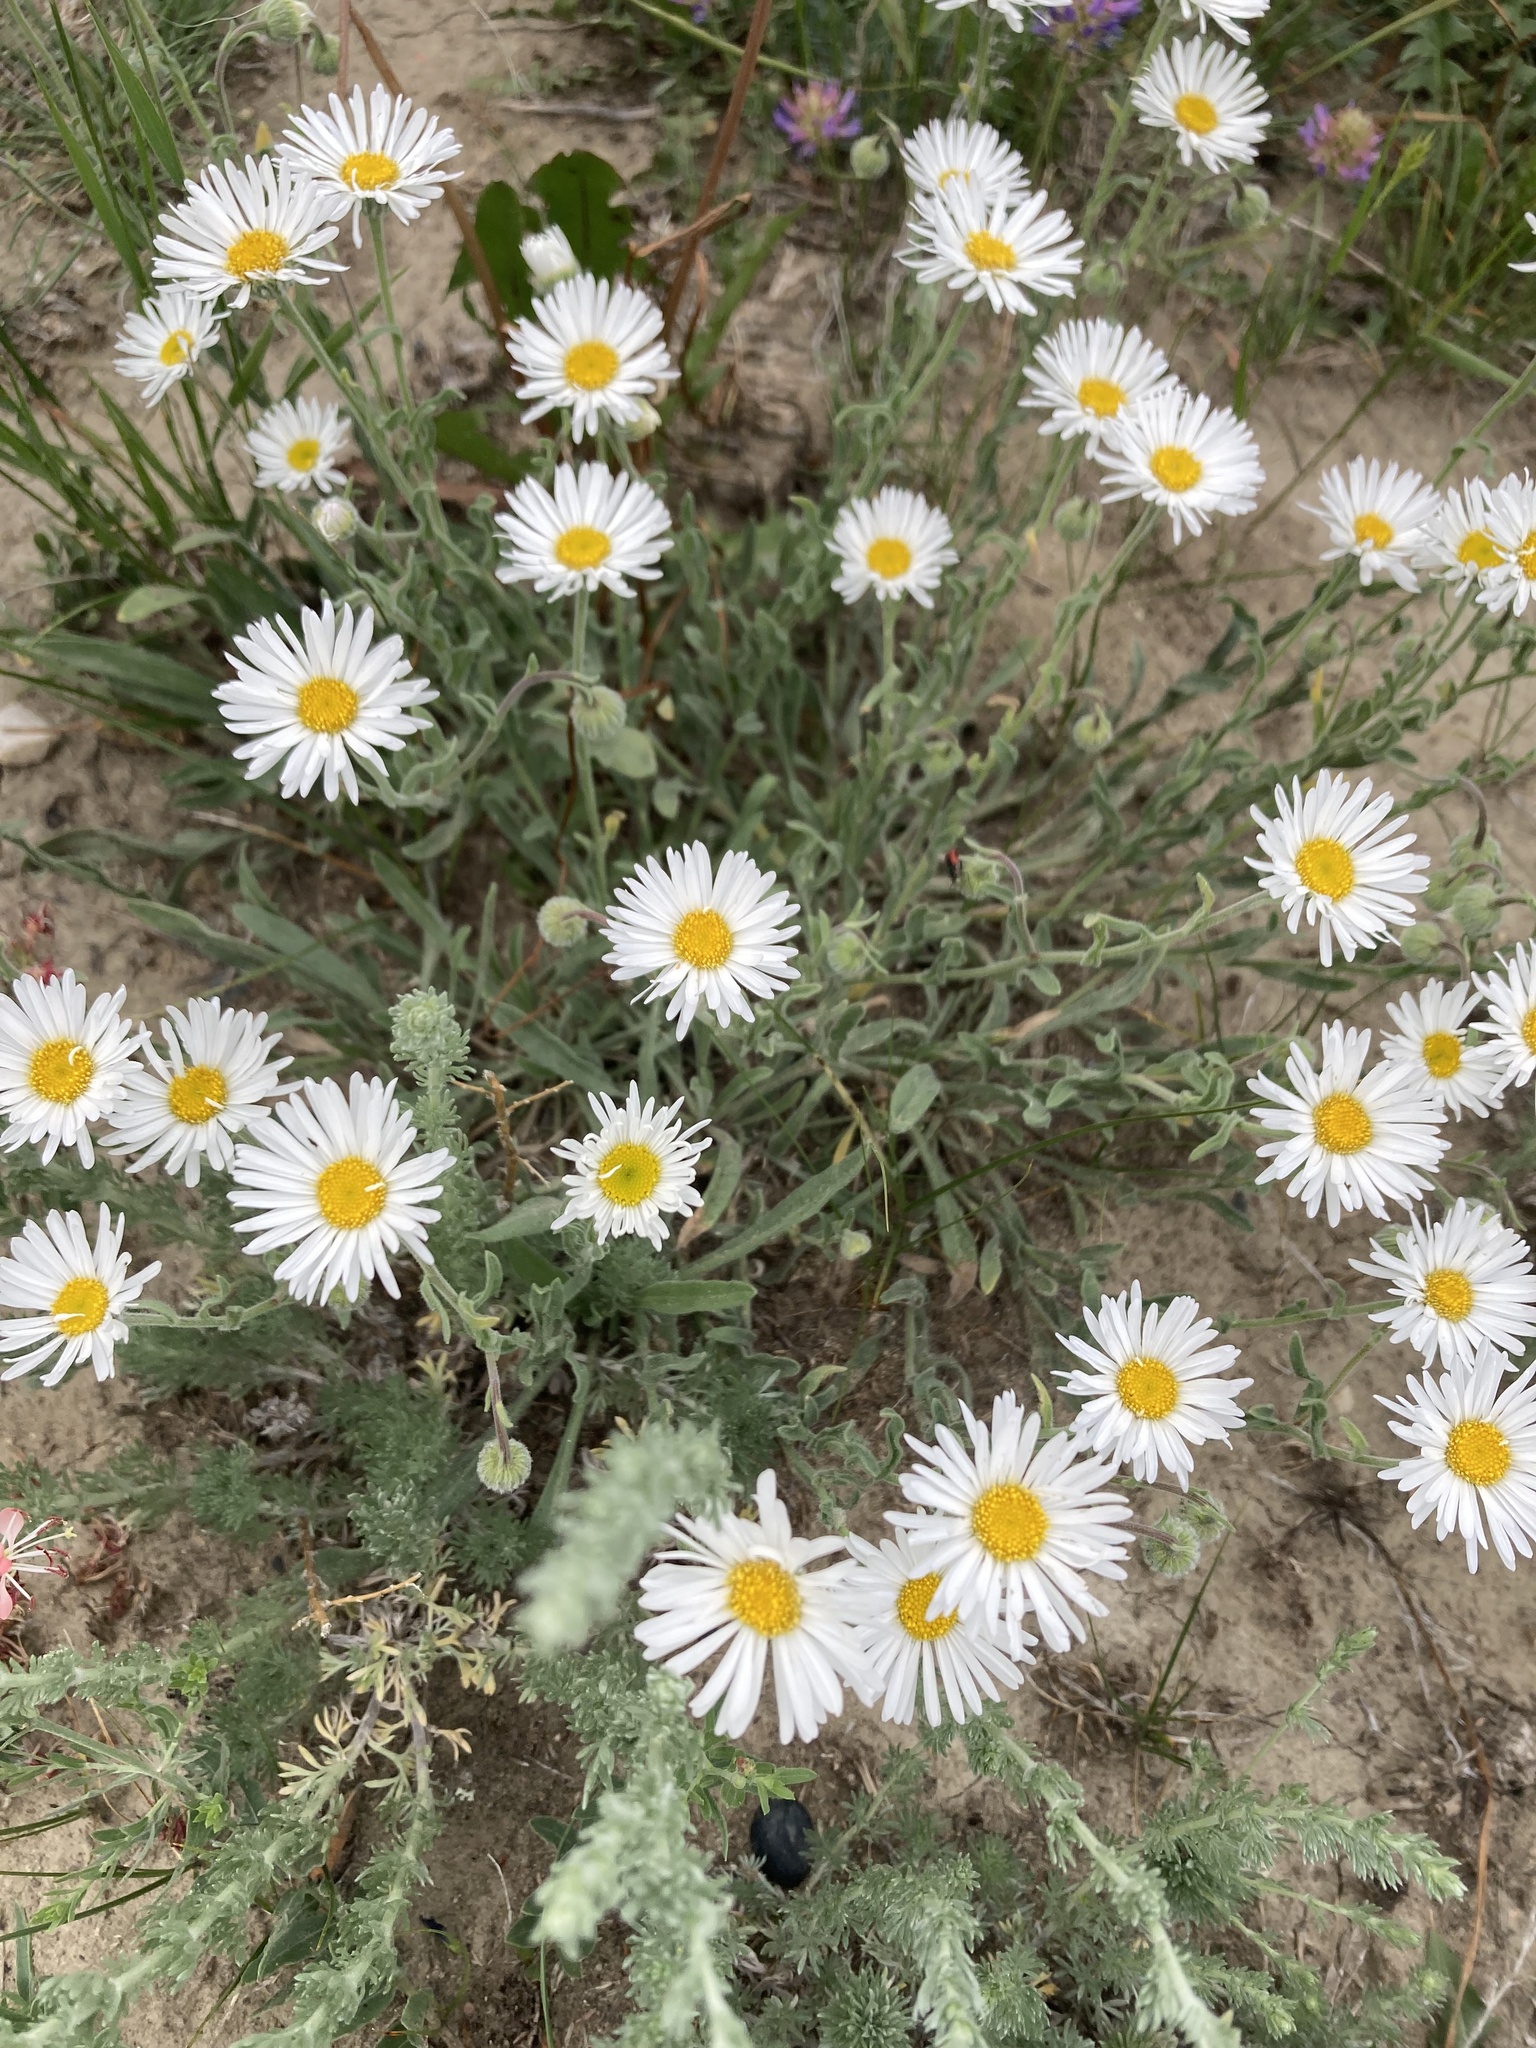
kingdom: Plantae
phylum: Tracheophyta
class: Magnoliopsida
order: Asterales
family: Asteraceae
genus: Erigeron
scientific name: Erigeron caespitosus
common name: Tufted fleabane
